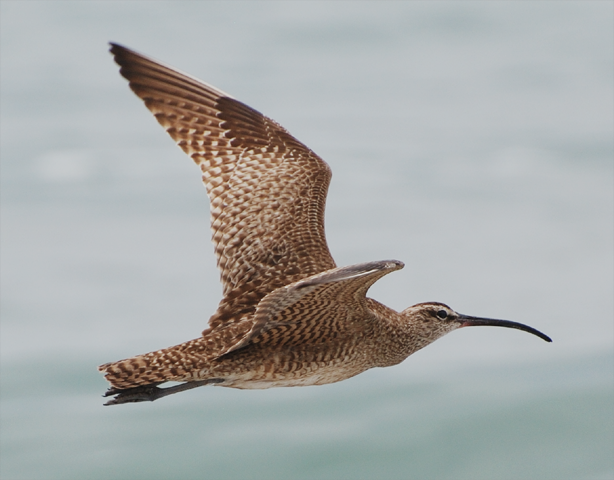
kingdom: Animalia
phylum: Chordata
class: Aves
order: Charadriiformes
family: Scolopacidae
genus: Numenius
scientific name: Numenius phaeopus
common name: Whimbrel
